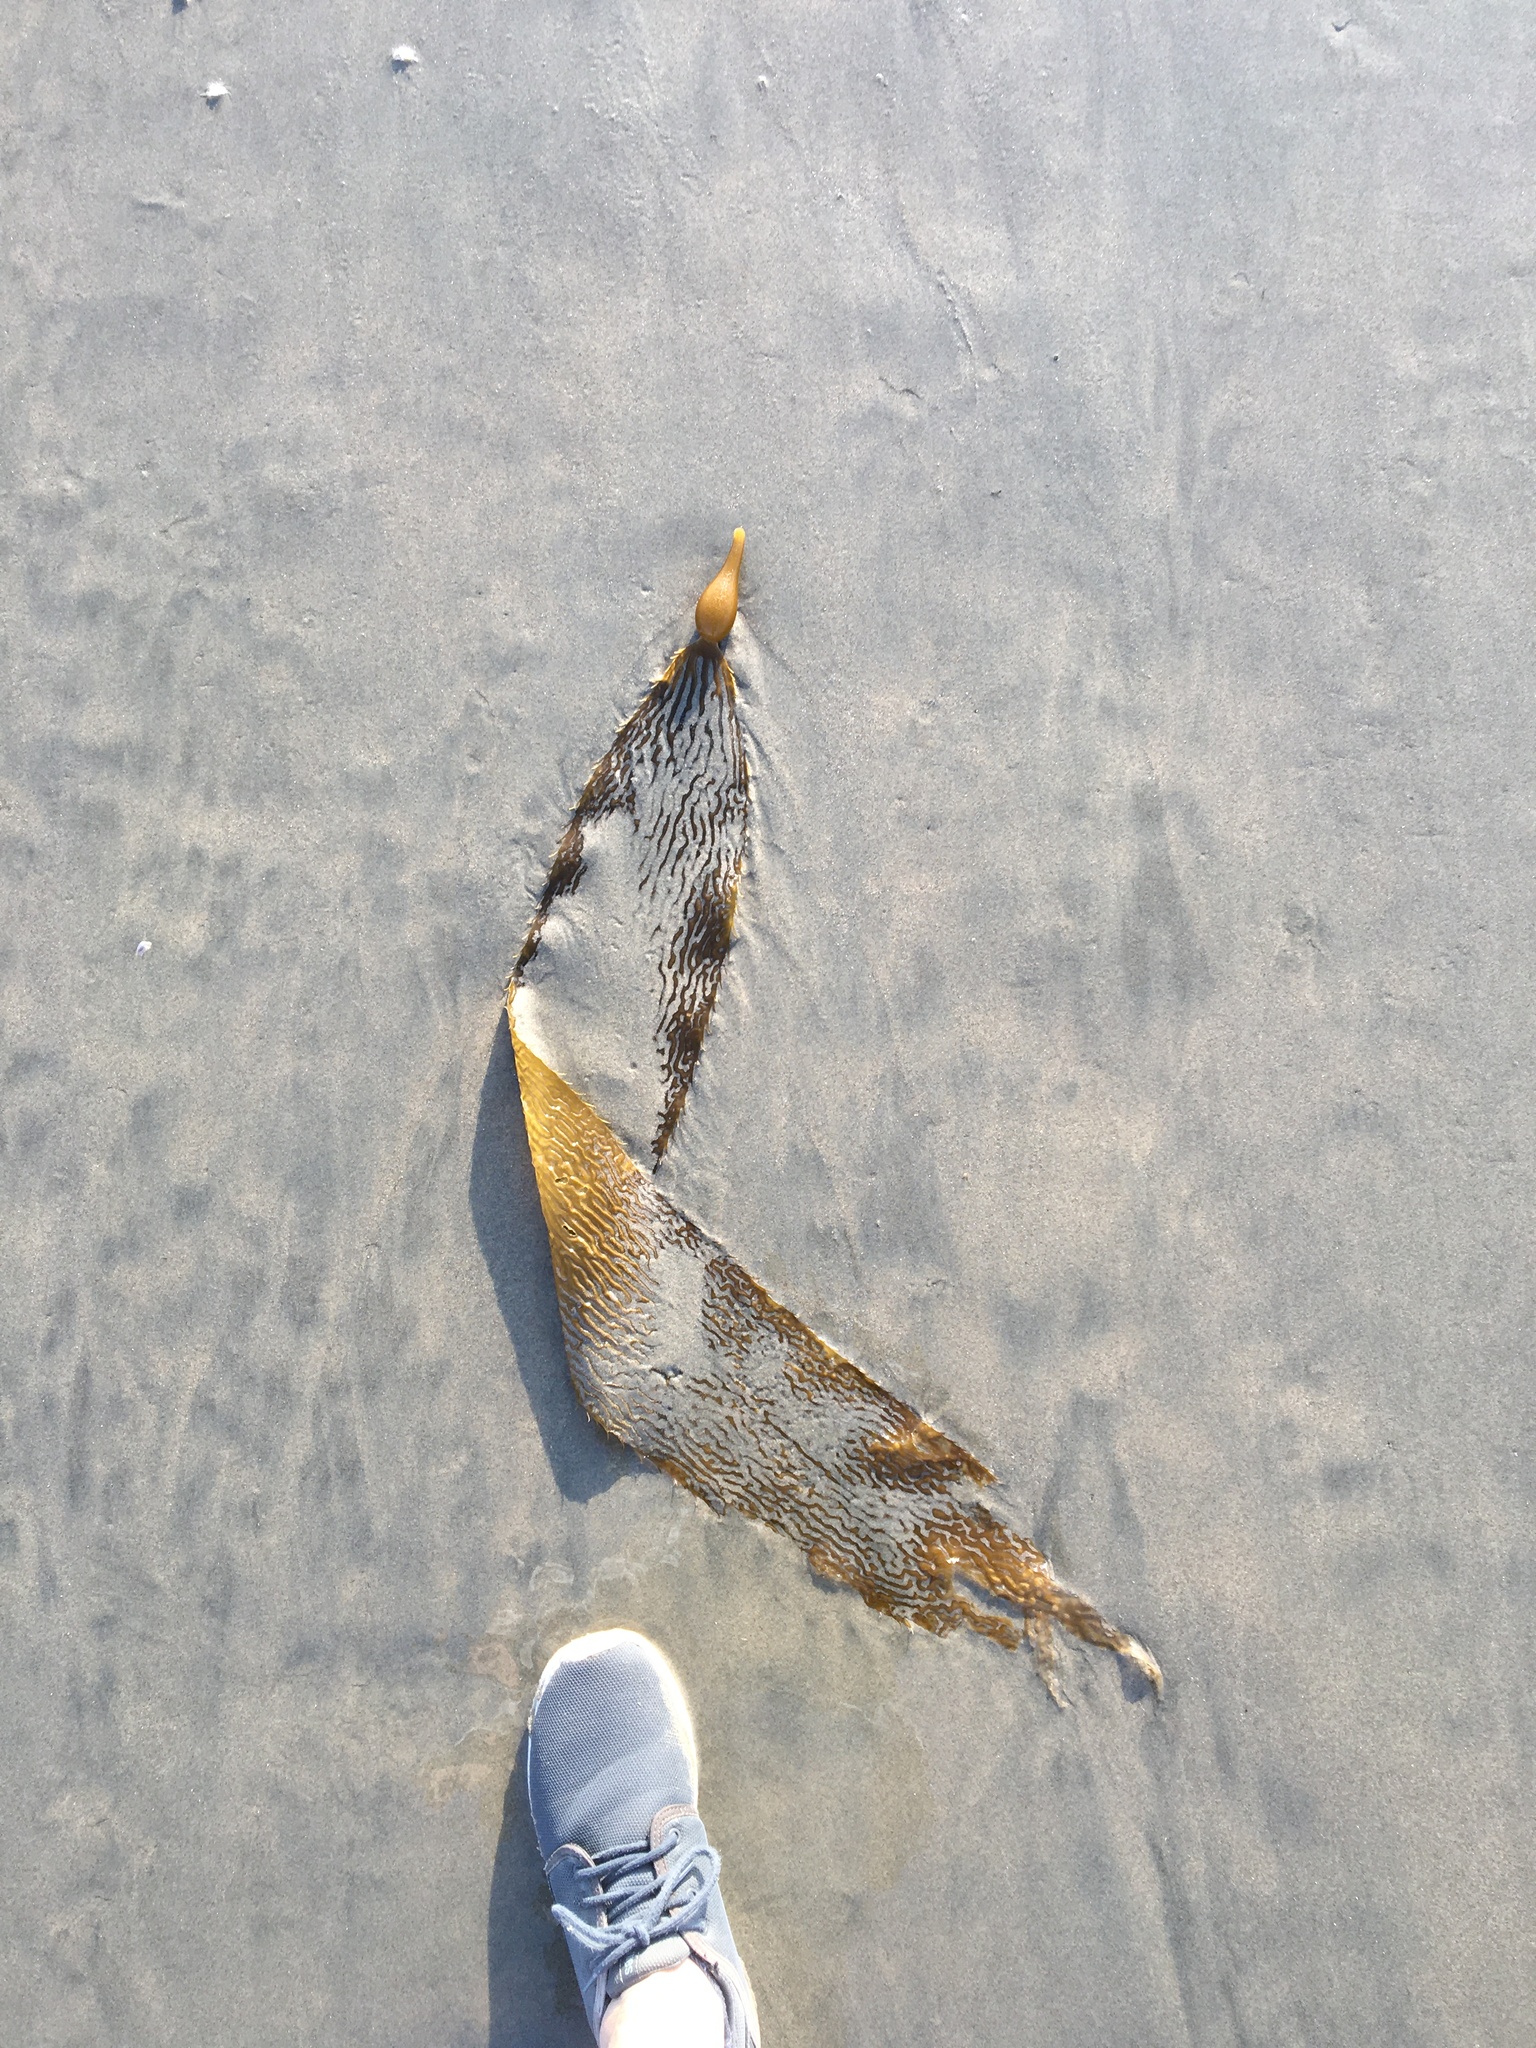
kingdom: Chromista
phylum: Ochrophyta
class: Phaeophyceae
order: Laminariales
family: Laminariaceae
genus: Macrocystis
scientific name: Macrocystis pyrifera
